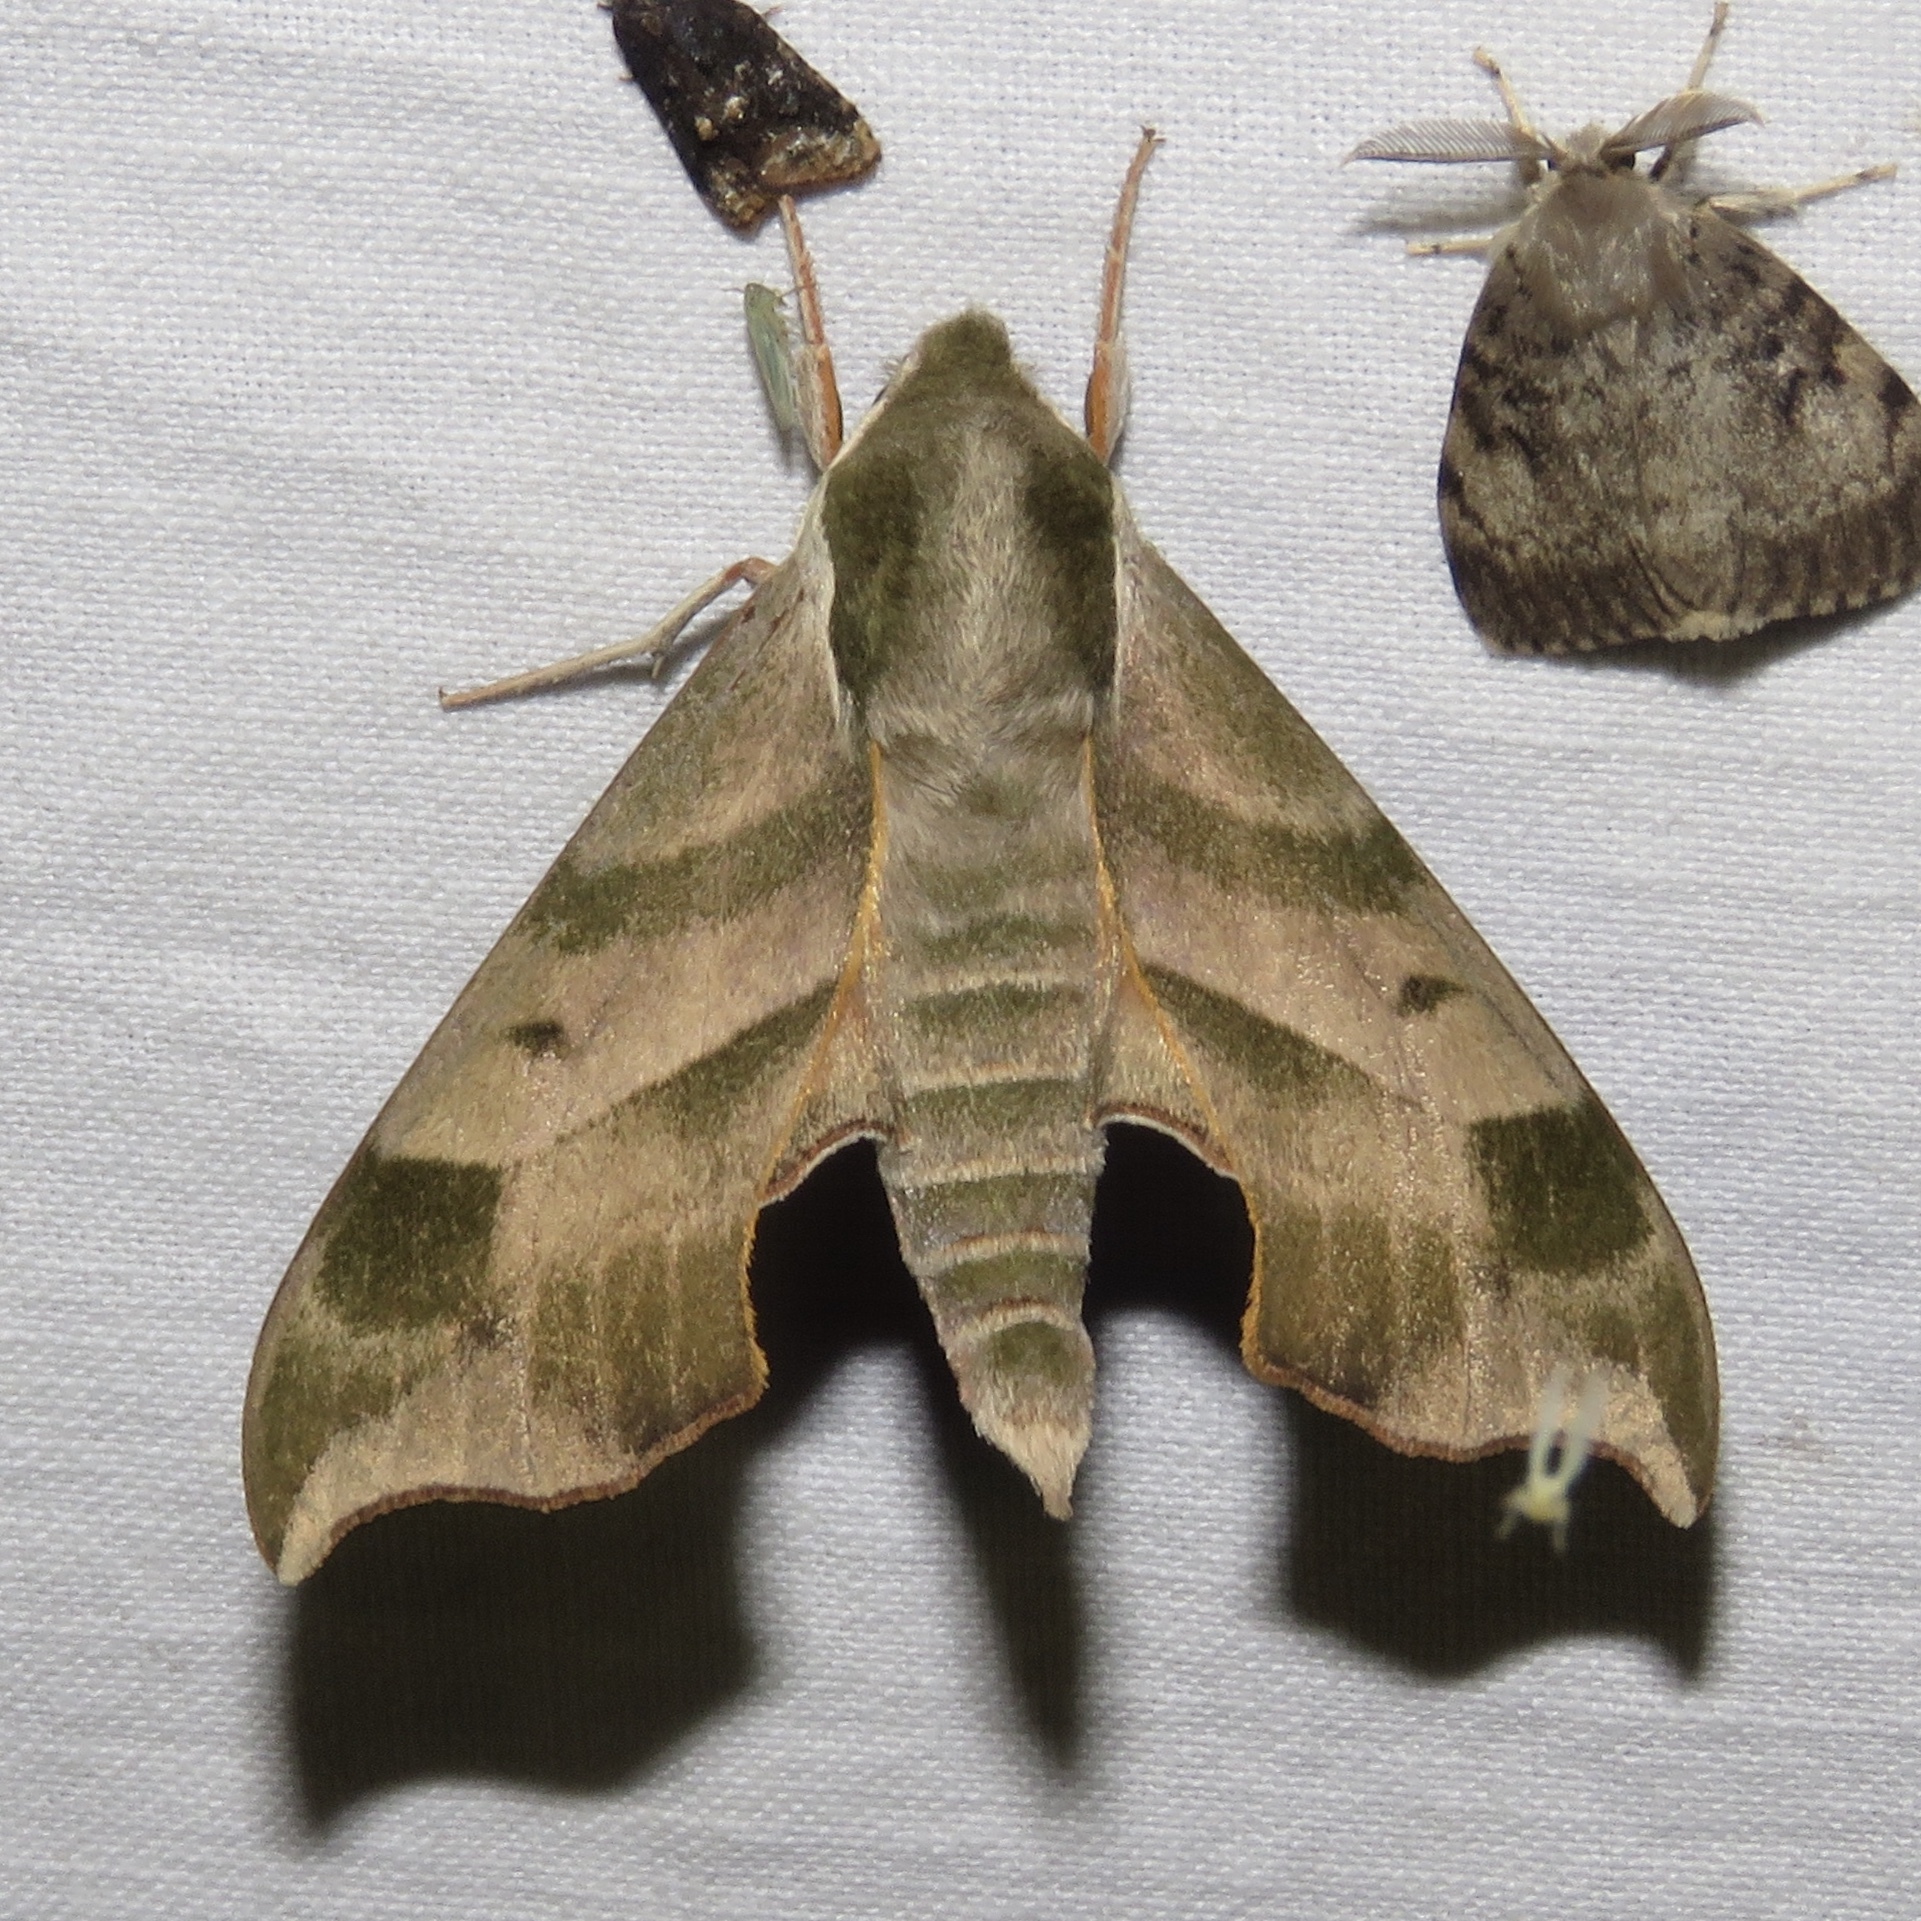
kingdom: Animalia
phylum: Arthropoda
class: Insecta
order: Lepidoptera
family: Sphingidae
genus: Darapsa
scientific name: Darapsa myron
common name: Hog sphinx
